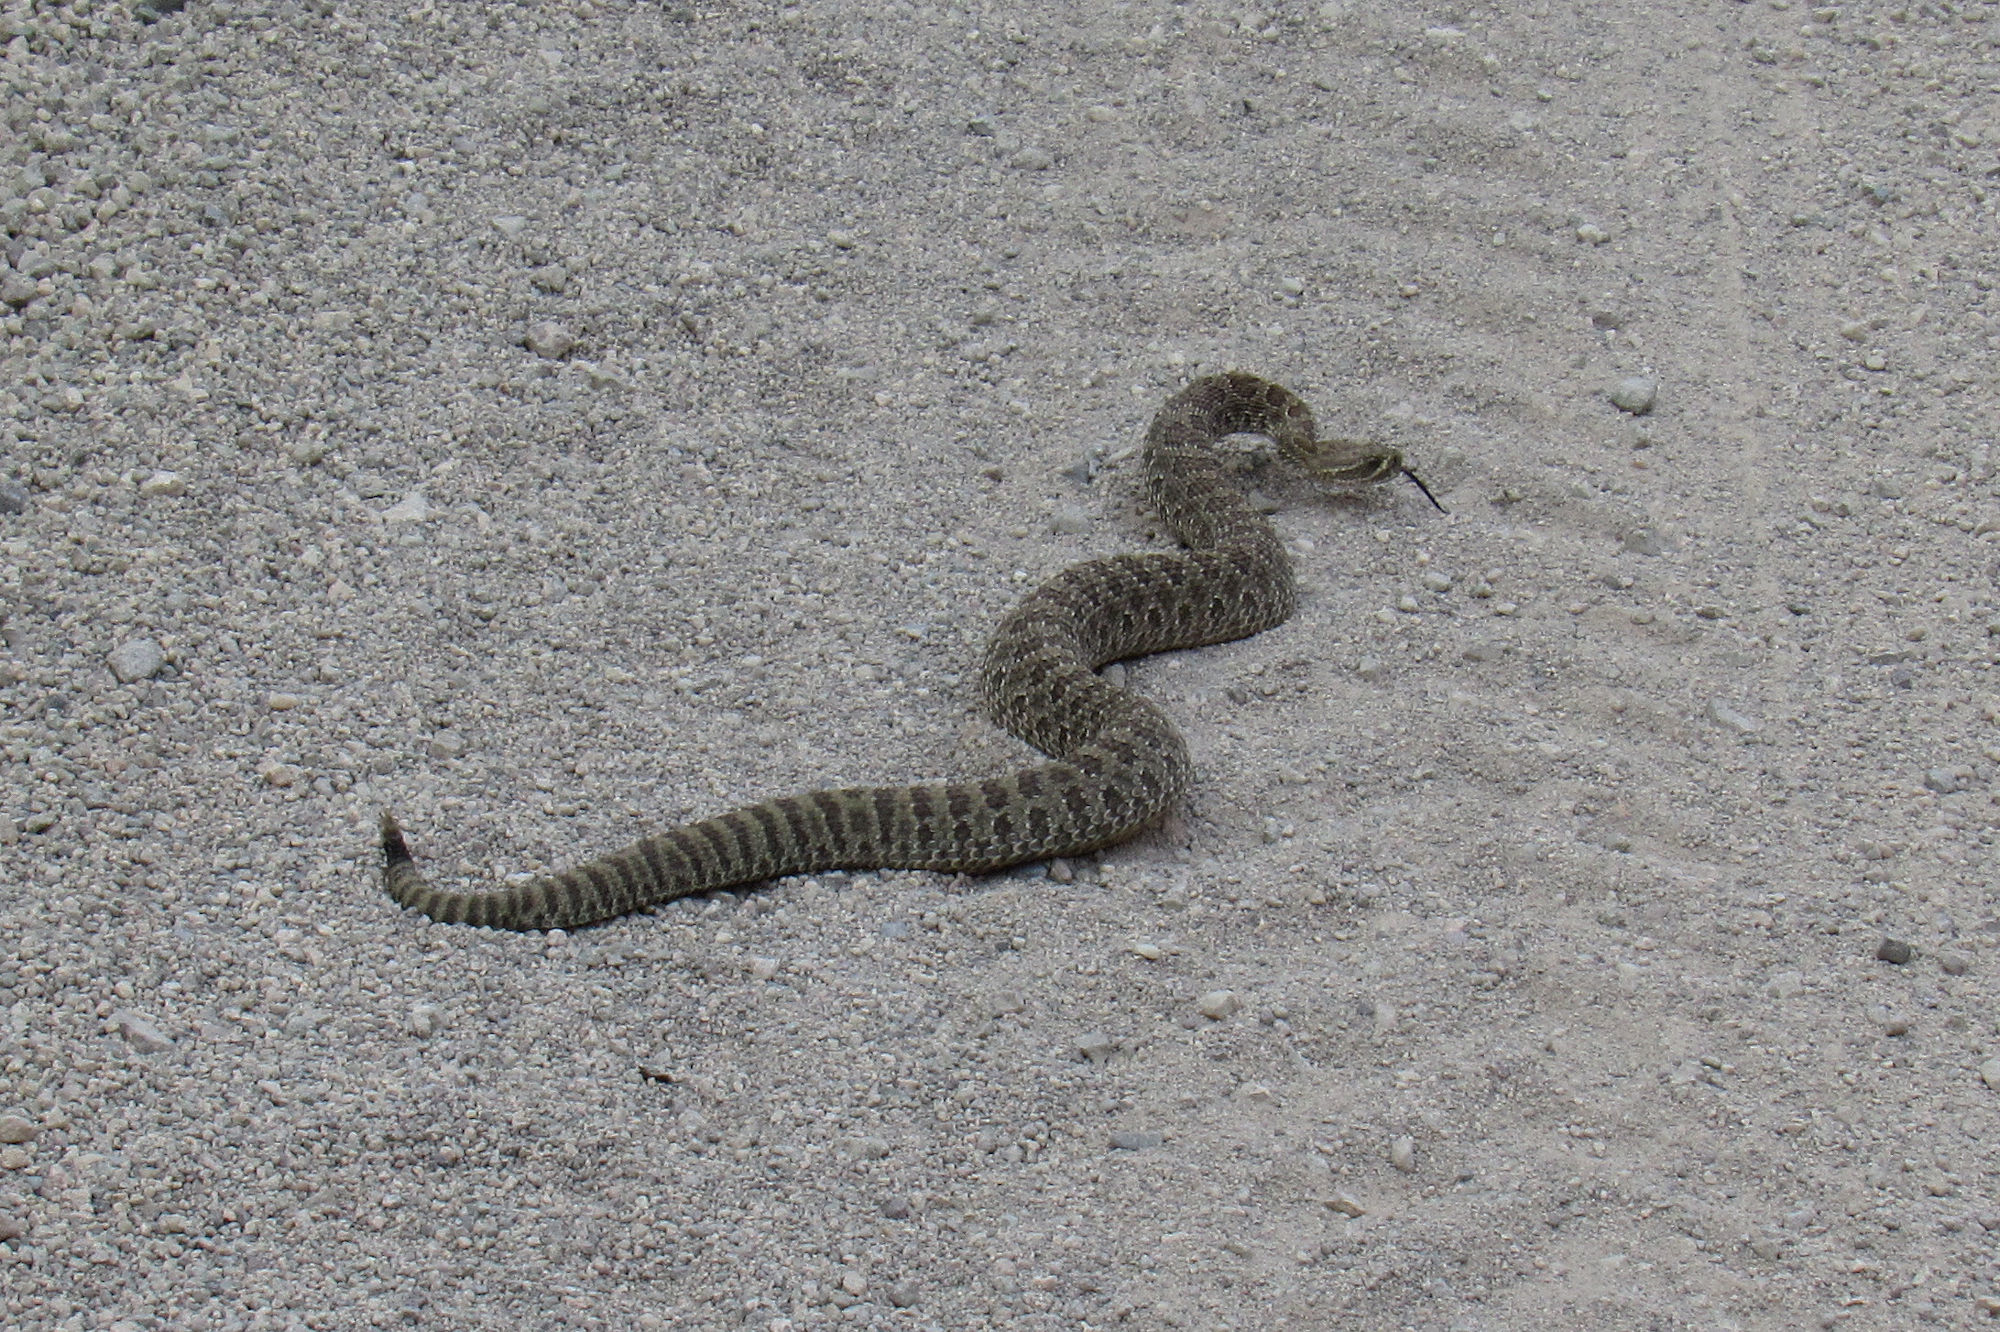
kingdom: Animalia
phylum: Chordata
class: Squamata
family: Viperidae
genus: Crotalus
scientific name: Crotalus viridis
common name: Prairie rattlesnake
